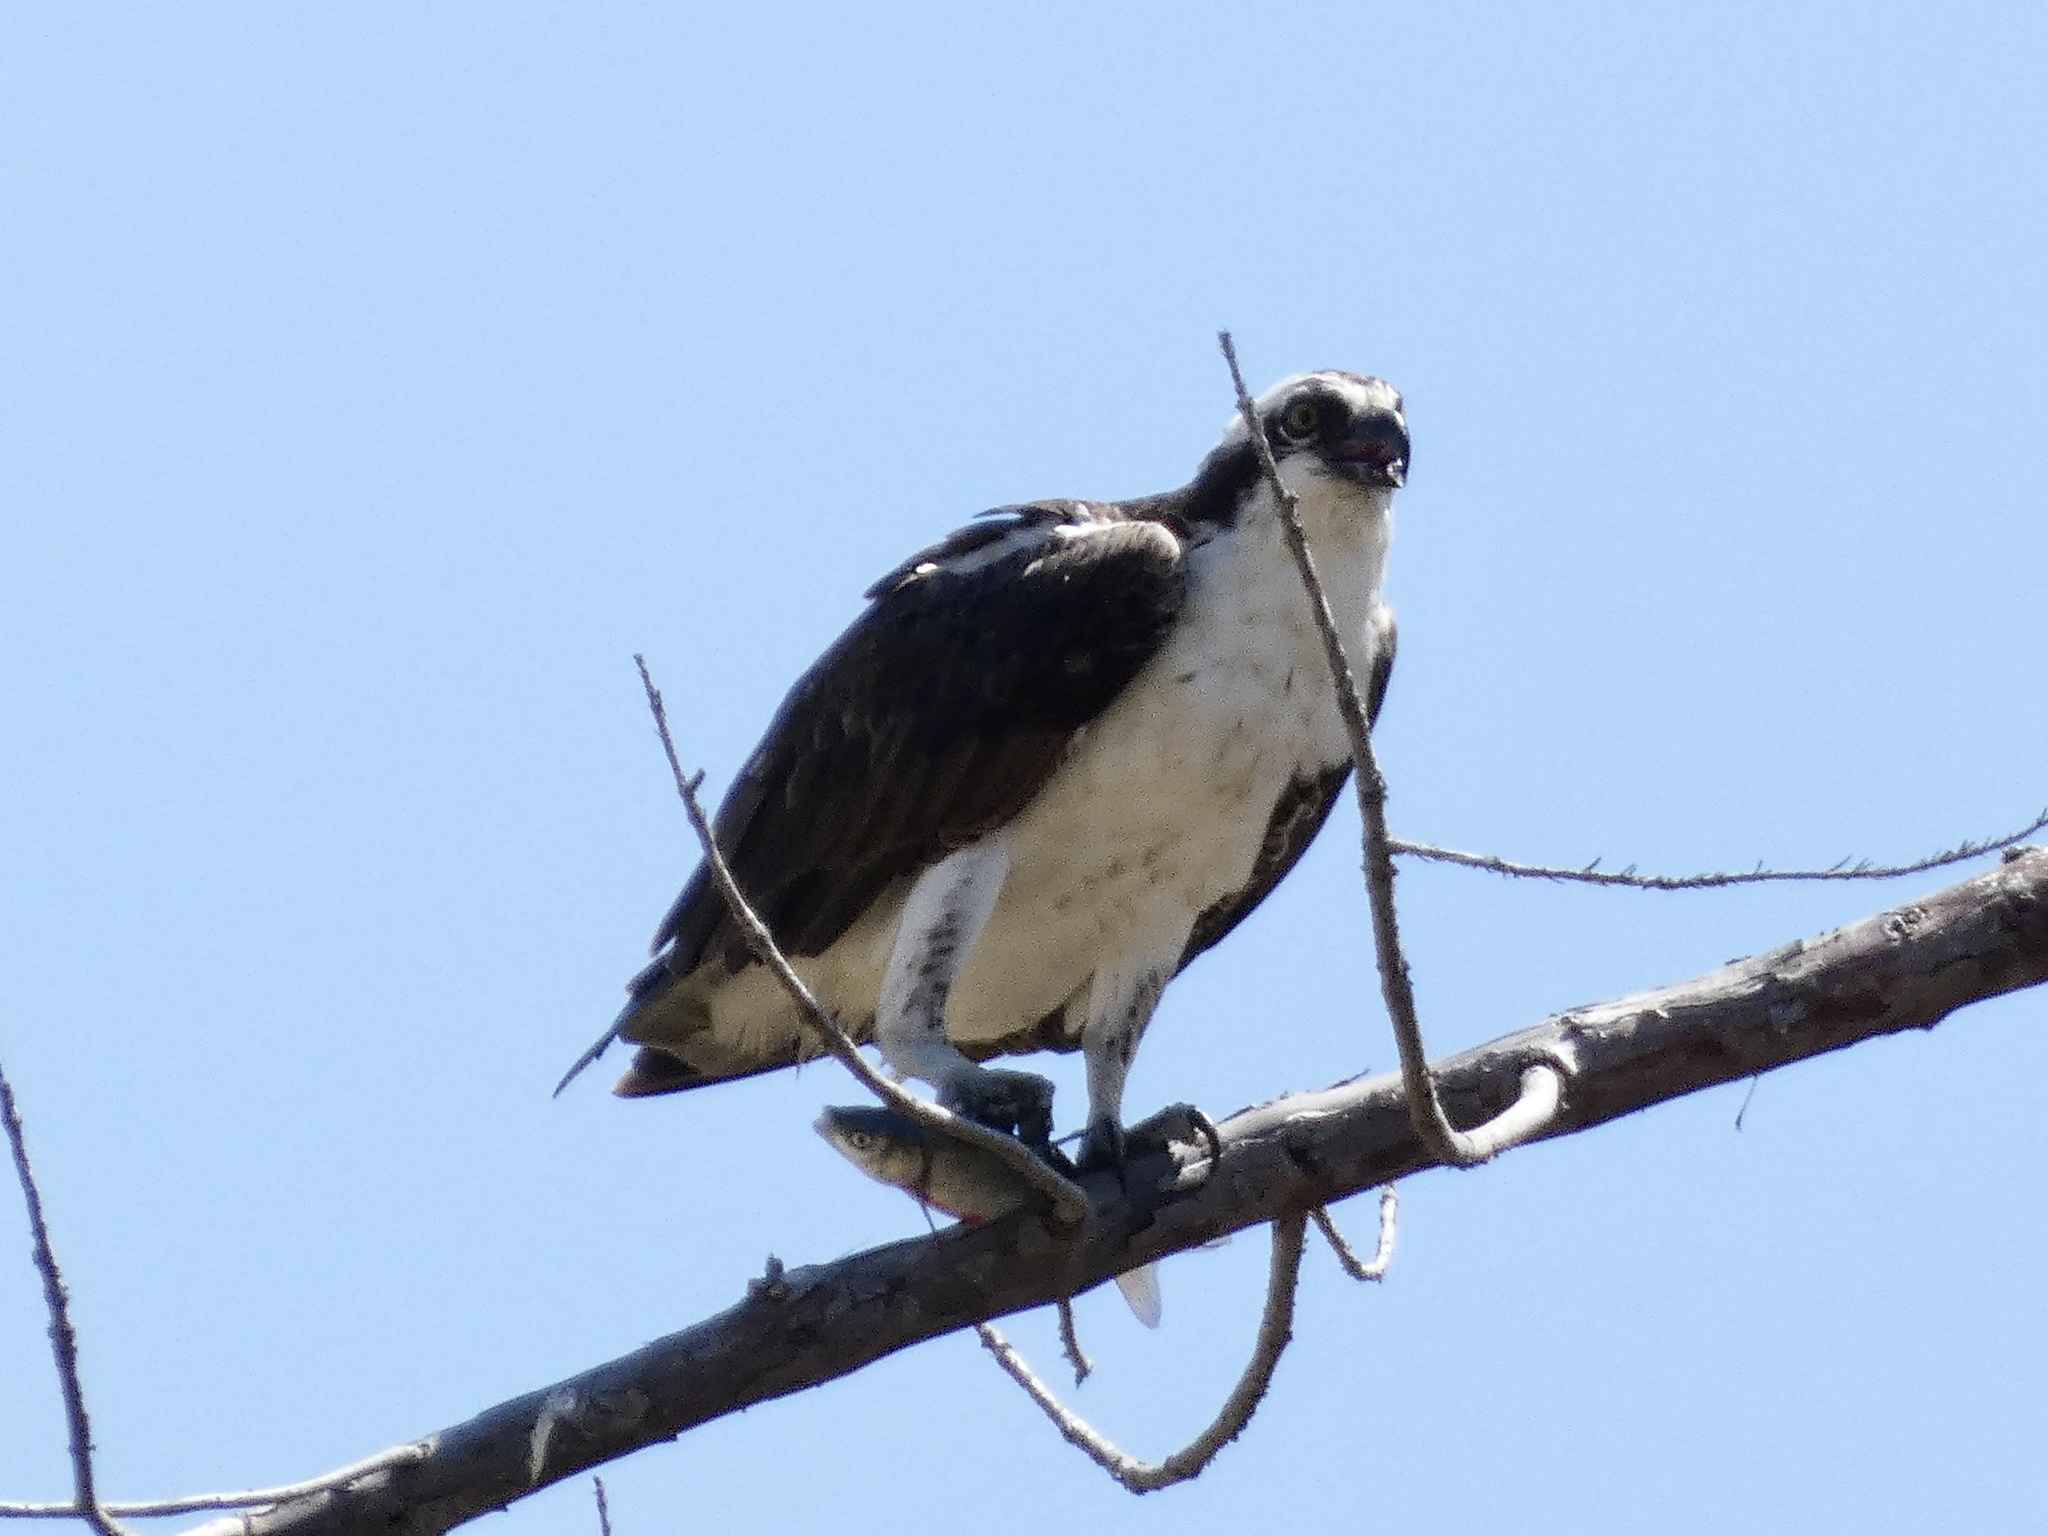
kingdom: Animalia
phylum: Chordata
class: Aves
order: Accipitriformes
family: Pandionidae
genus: Pandion
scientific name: Pandion haliaetus
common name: Osprey
